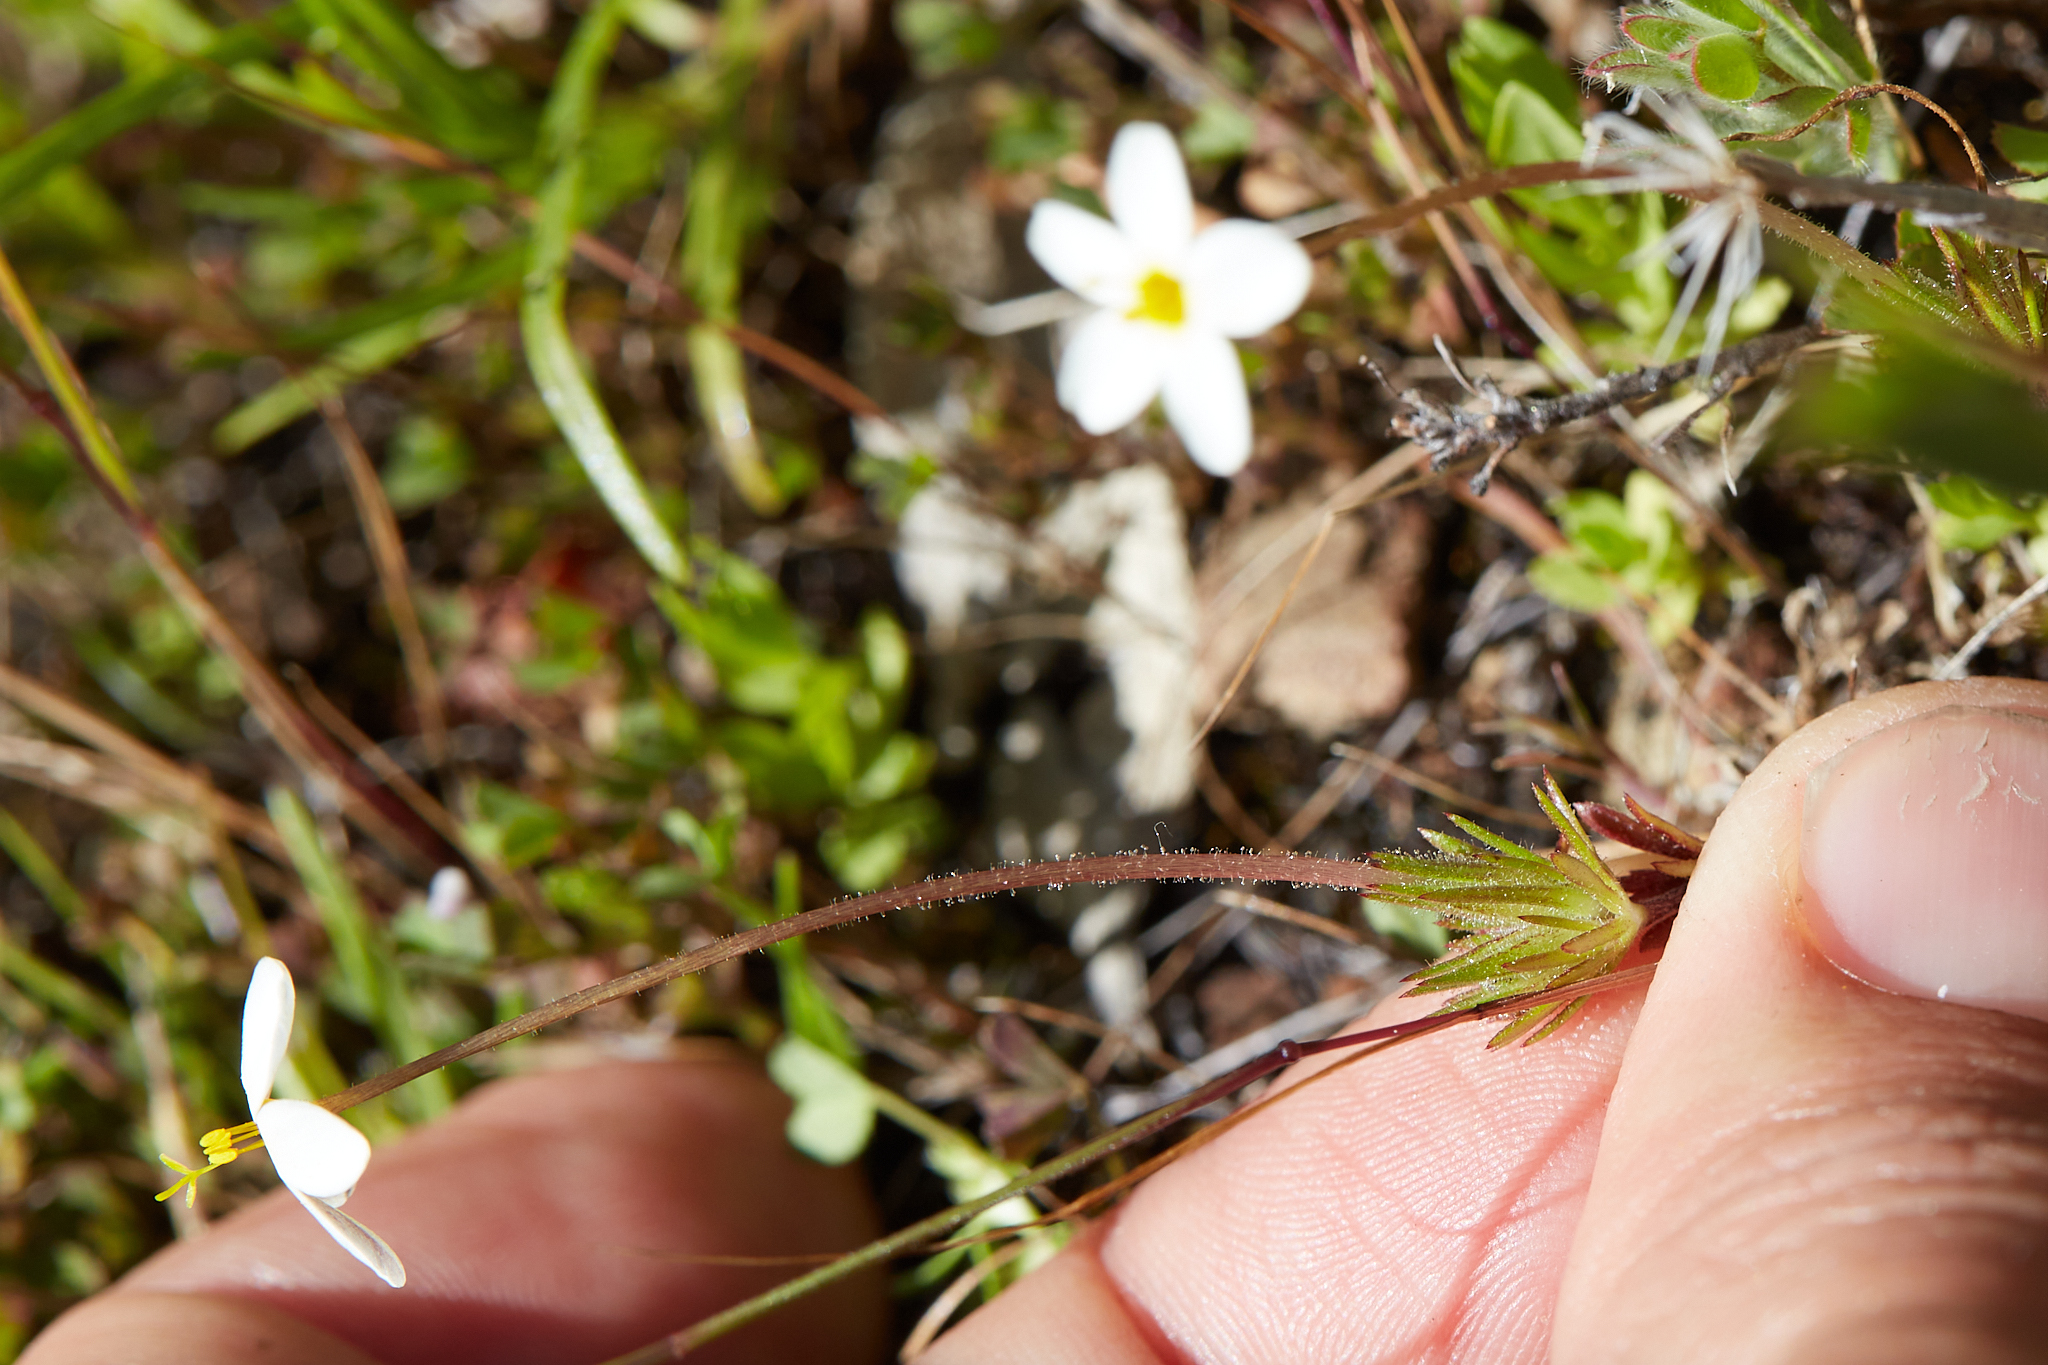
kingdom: Plantae
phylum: Tracheophyta
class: Magnoliopsida
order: Ericales
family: Polemoniaceae
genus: Leptosiphon
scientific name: Leptosiphon parviflorus
